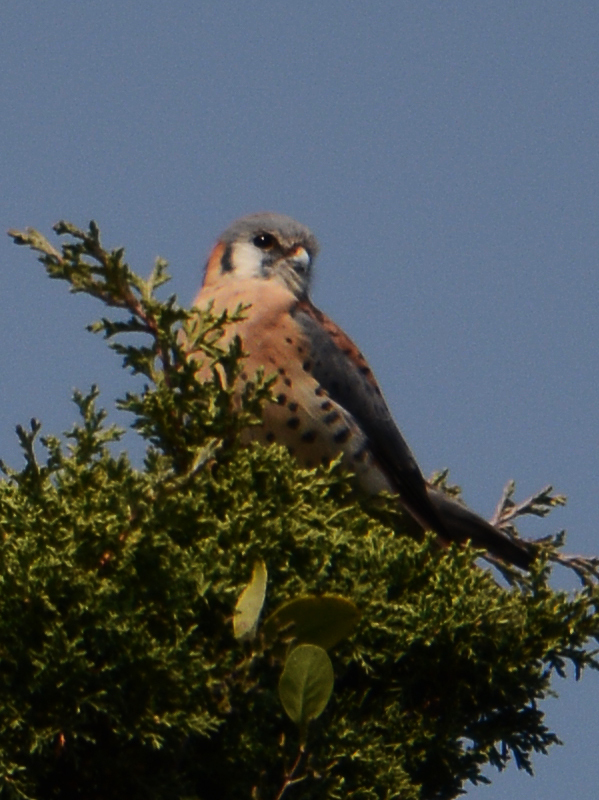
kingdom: Animalia
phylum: Chordata
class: Aves
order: Falconiformes
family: Falconidae
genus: Falco
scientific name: Falco sparverius
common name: American kestrel
